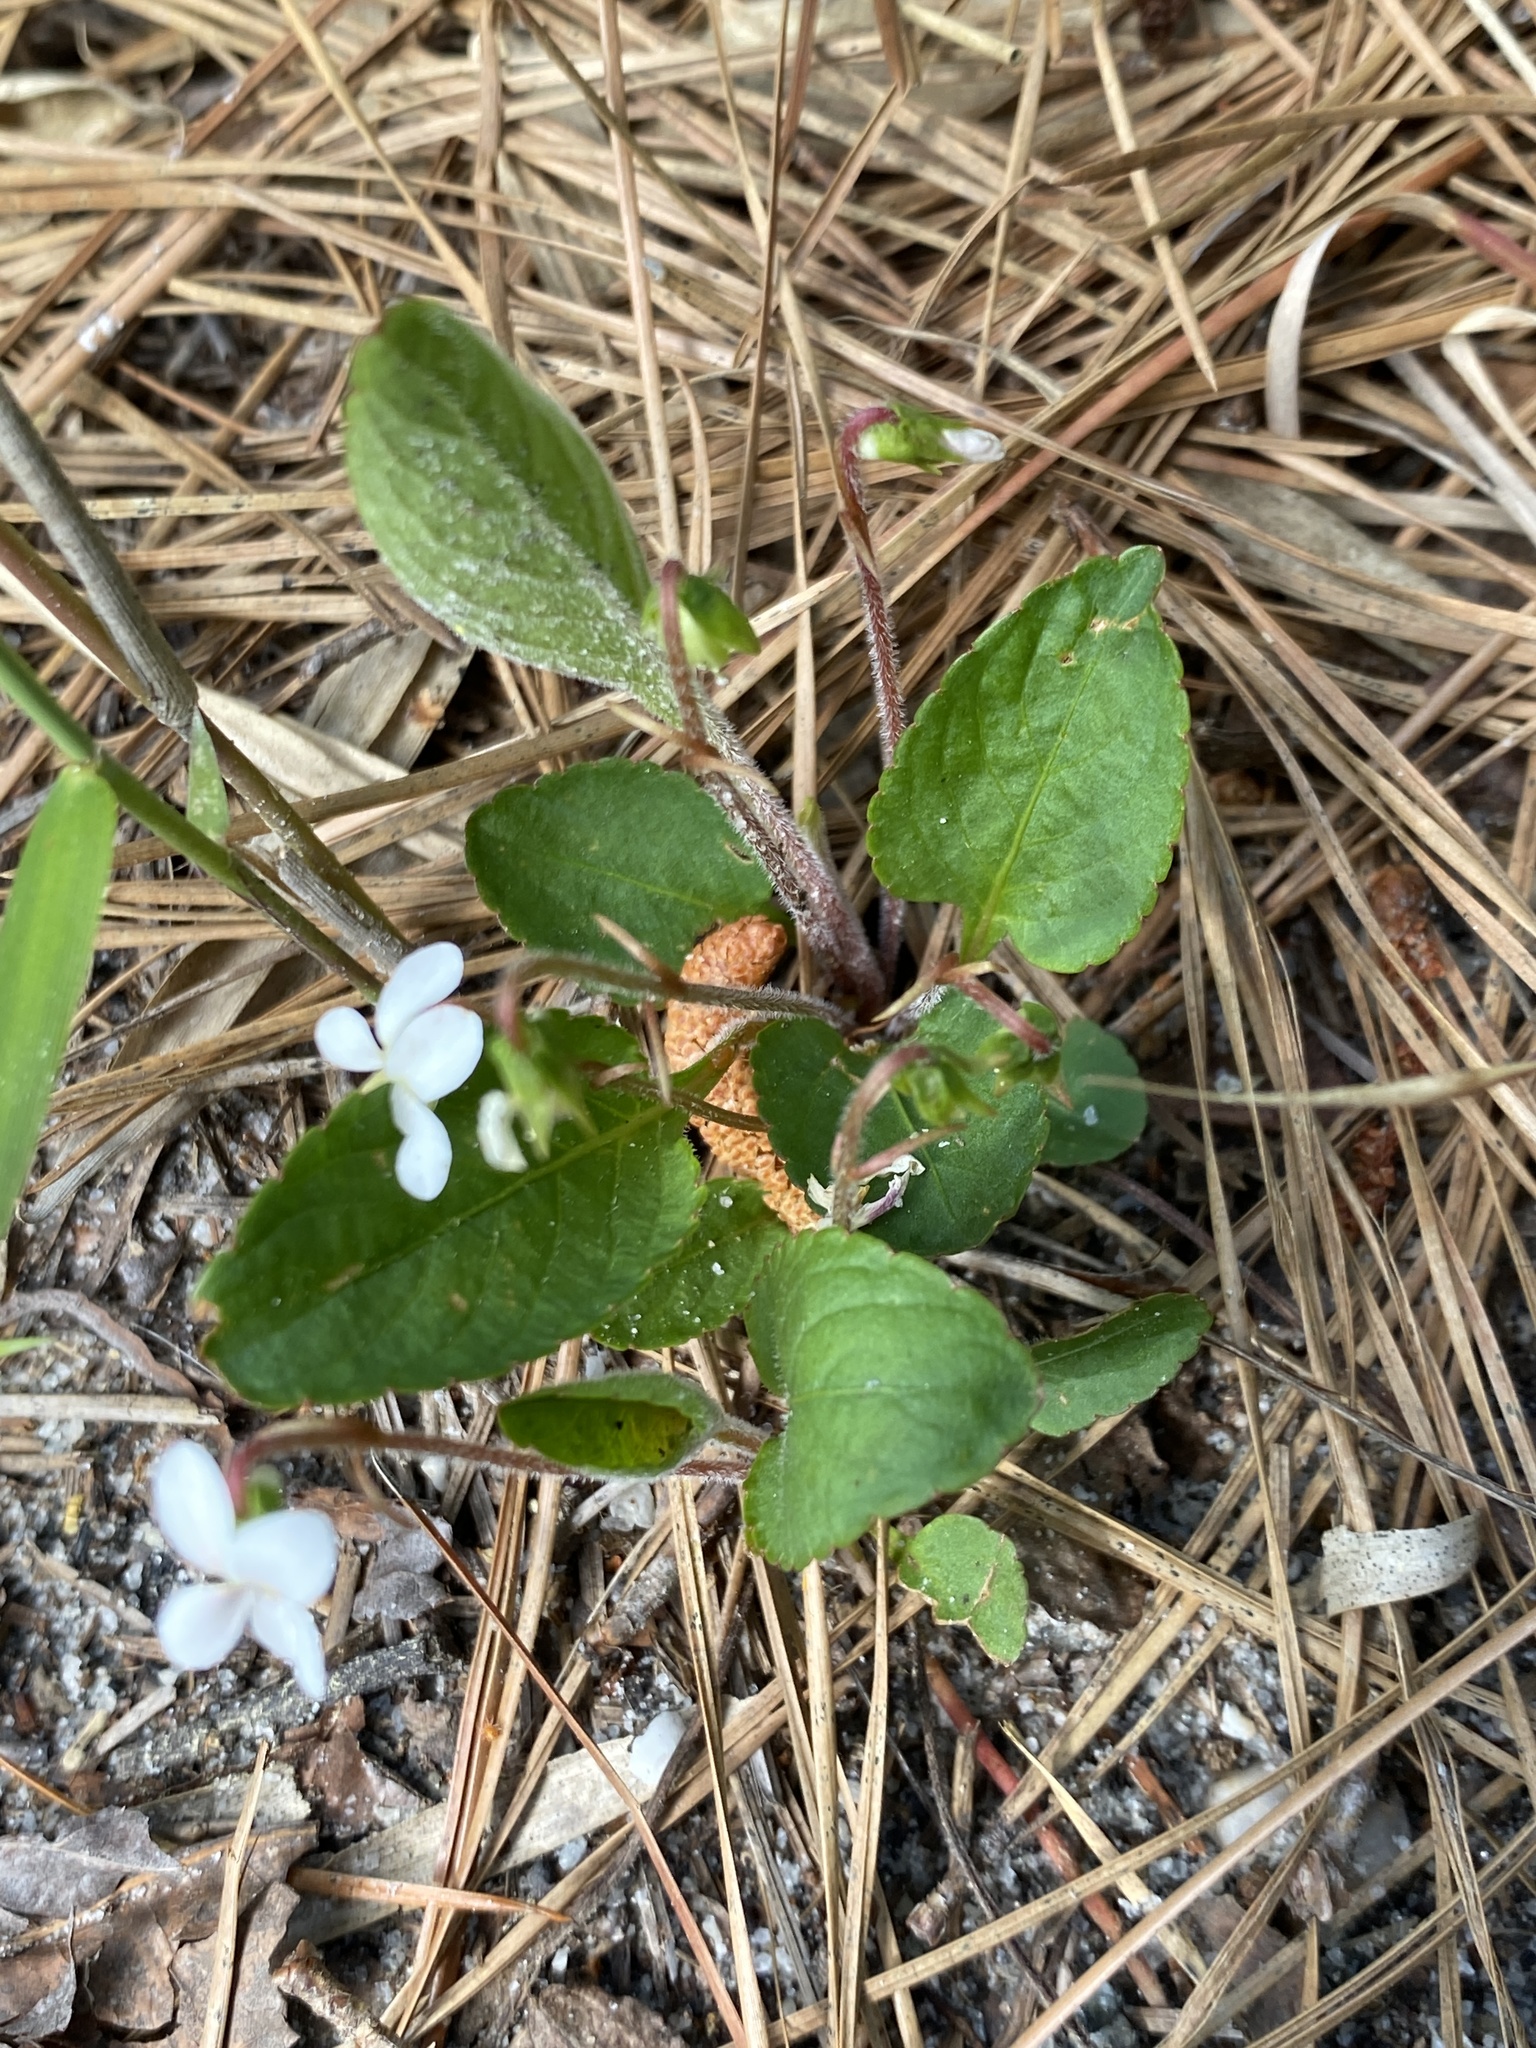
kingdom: Plantae
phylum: Tracheophyta
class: Magnoliopsida
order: Malpighiales
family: Violaceae
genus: Viola
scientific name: Viola primulifolia
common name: Primrose-leaf violet
